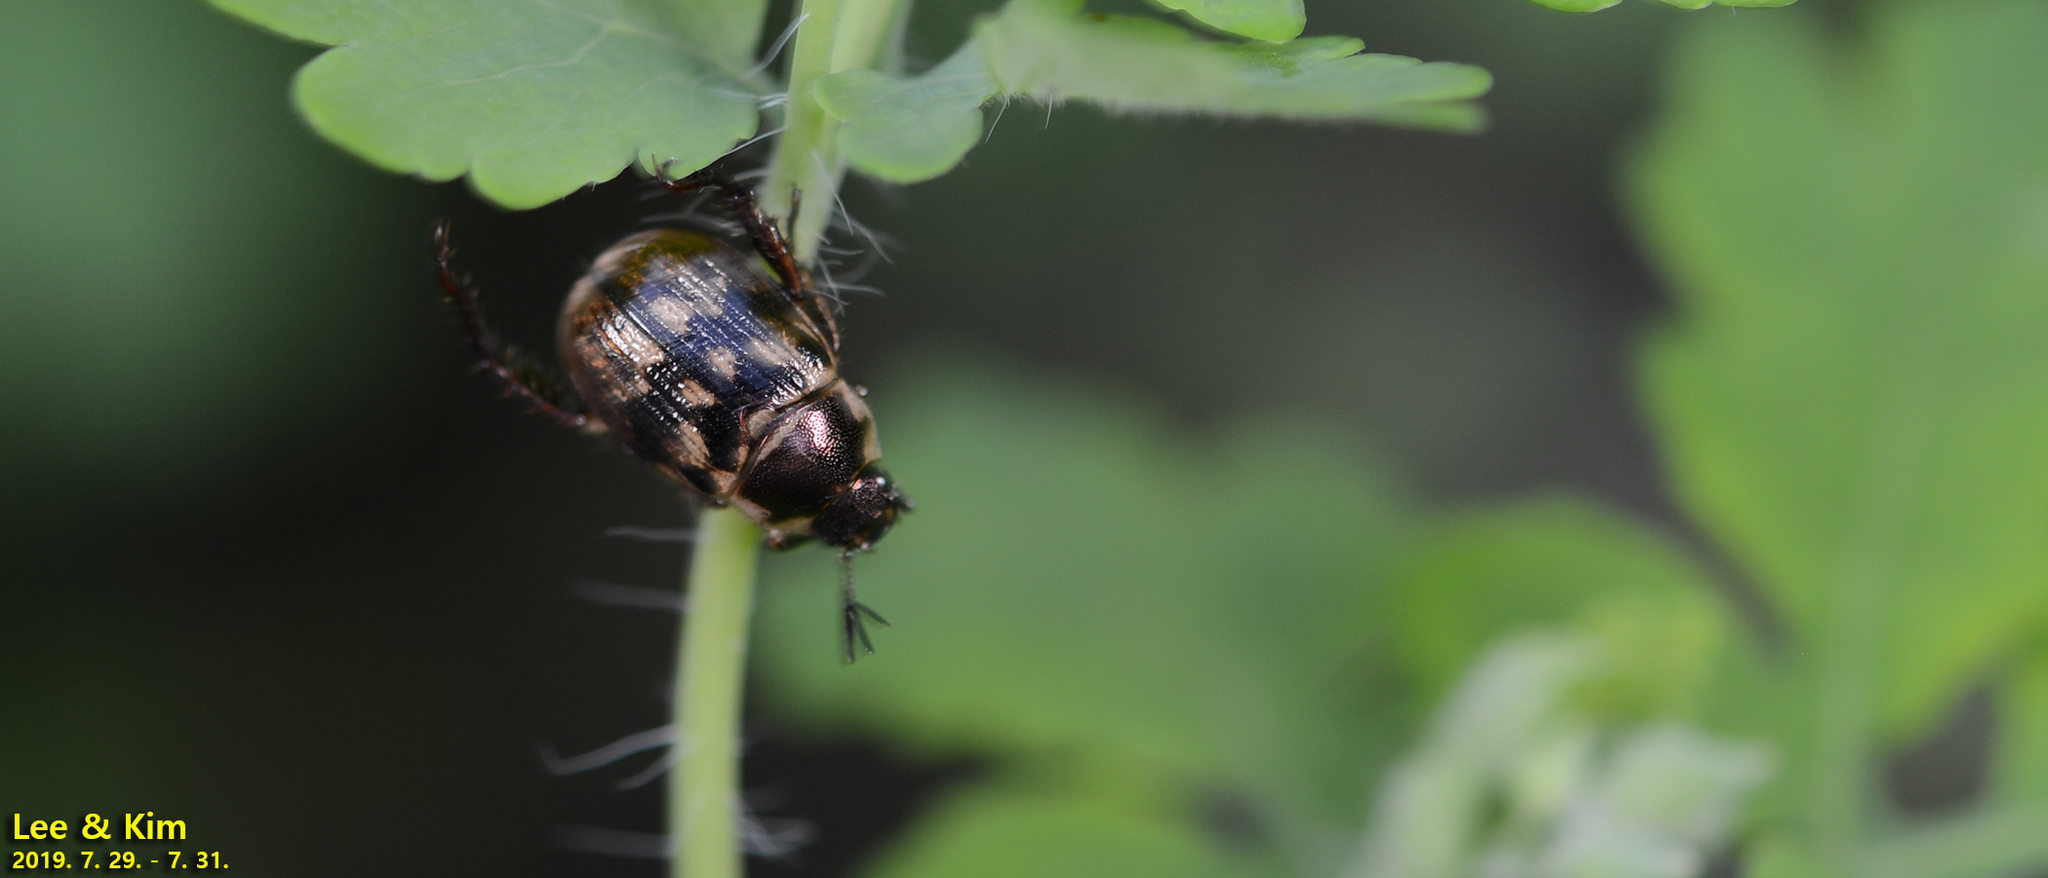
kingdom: Animalia
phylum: Arthropoda
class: Insecta
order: Coleoptera
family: Scarabaeidae
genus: Exomala
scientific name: Exomala orientalis
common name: Oriental beetle
